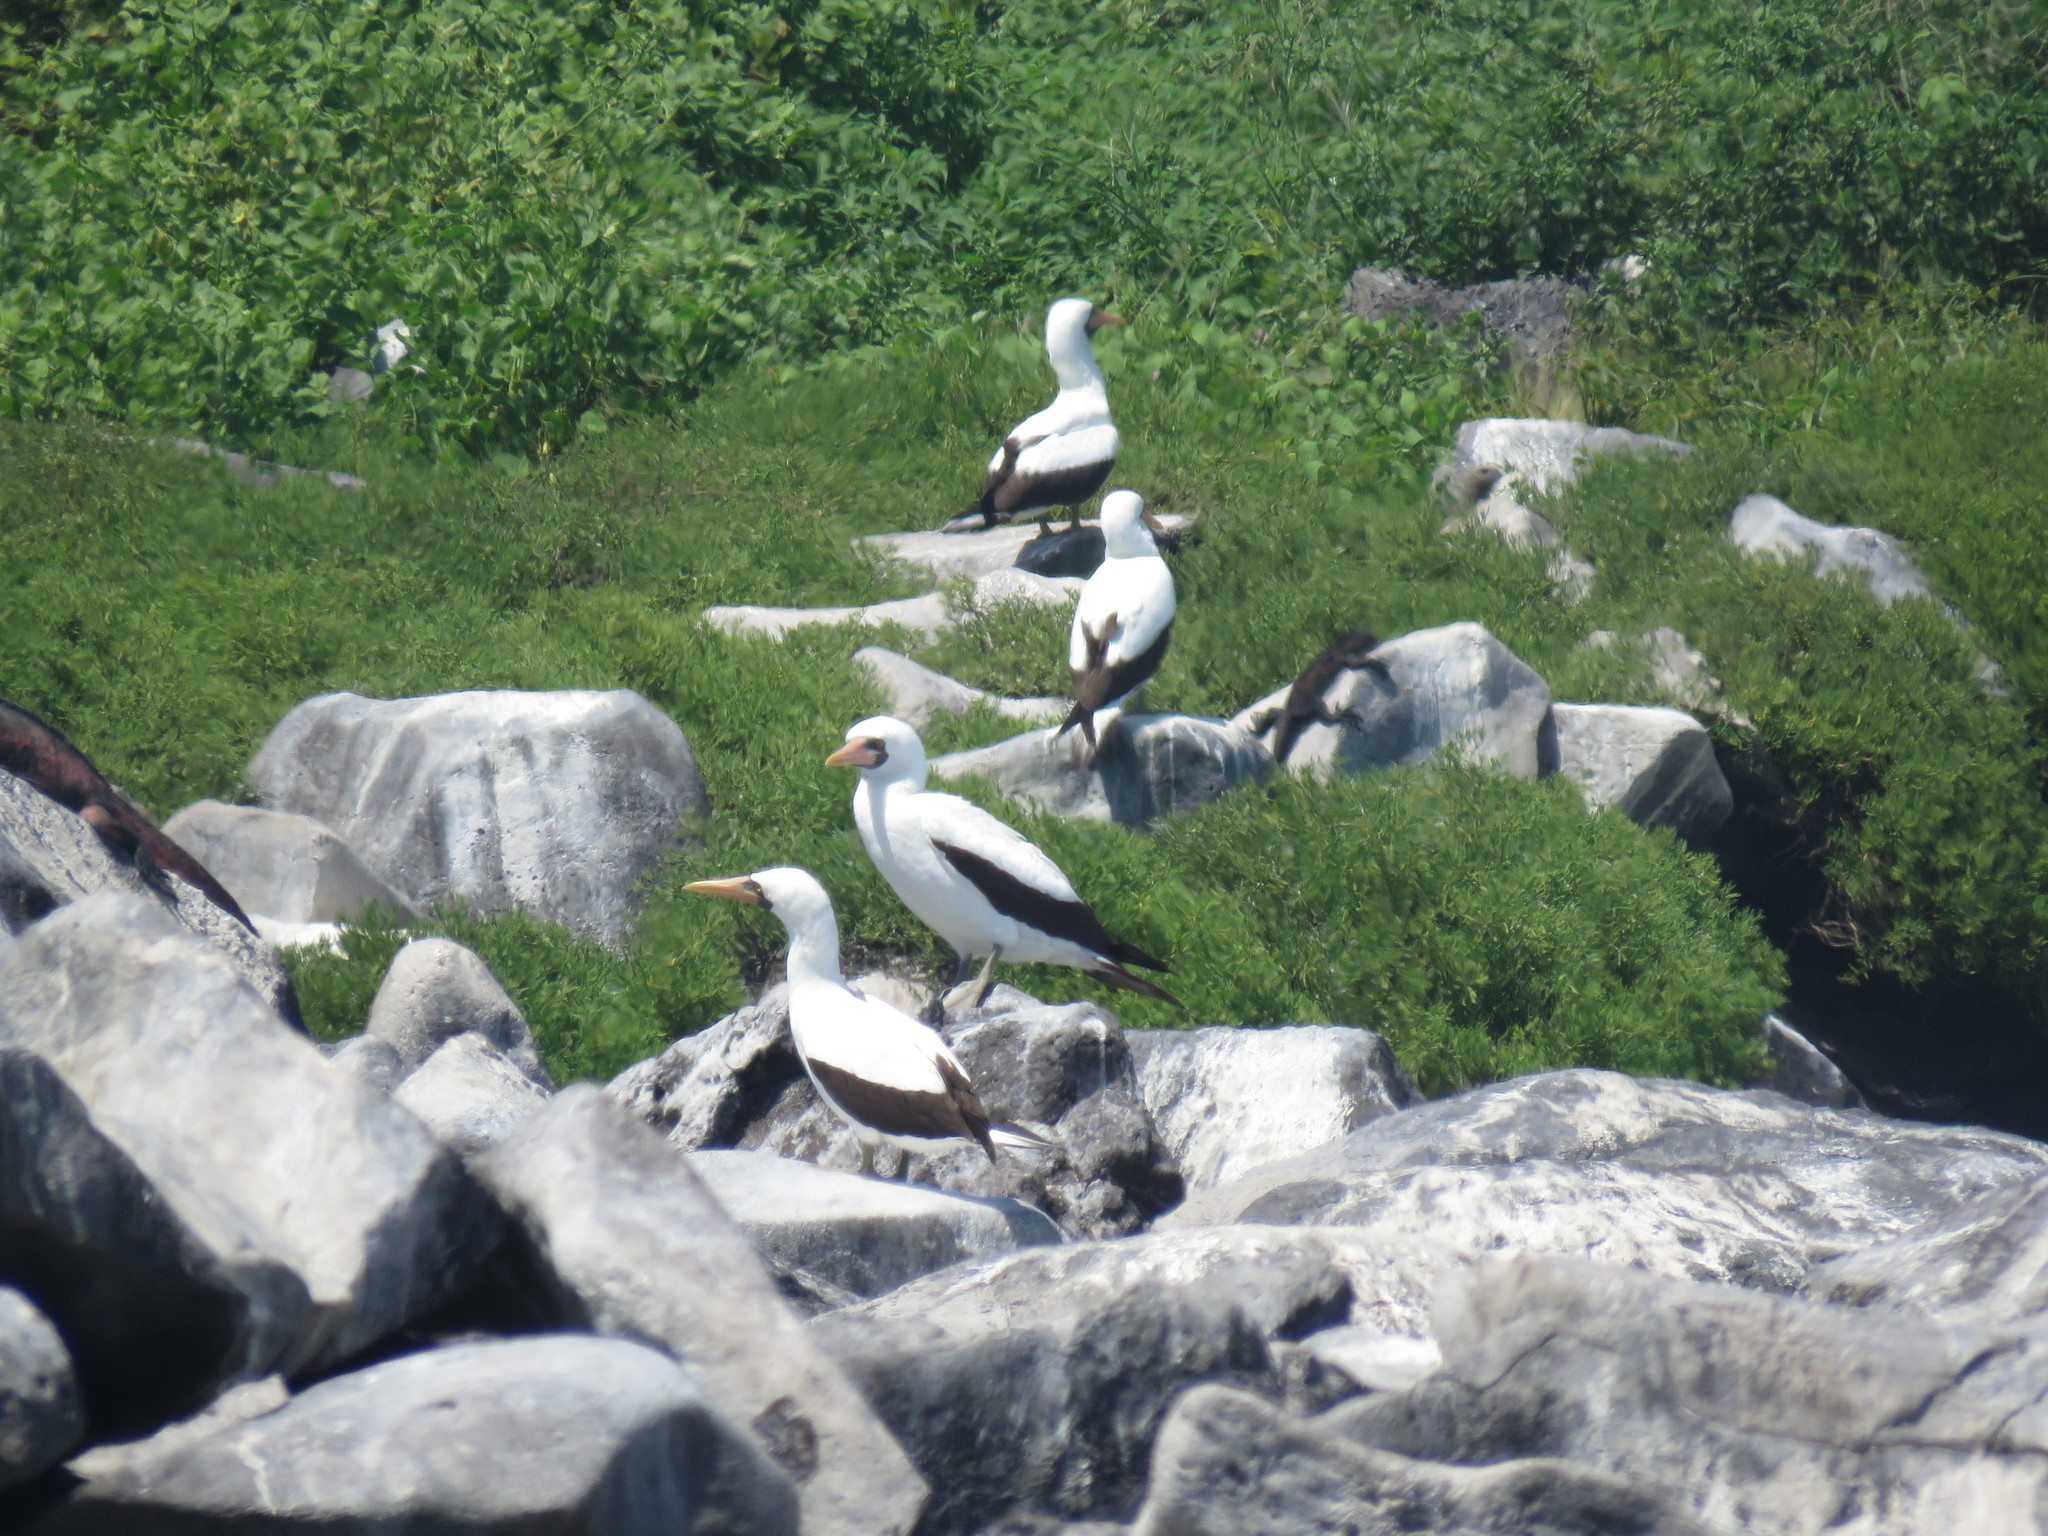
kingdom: Animalia
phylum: Chordata
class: Aves
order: Suliformes
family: Sulidae
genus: Sula
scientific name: Sula granti
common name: Nazca booby
